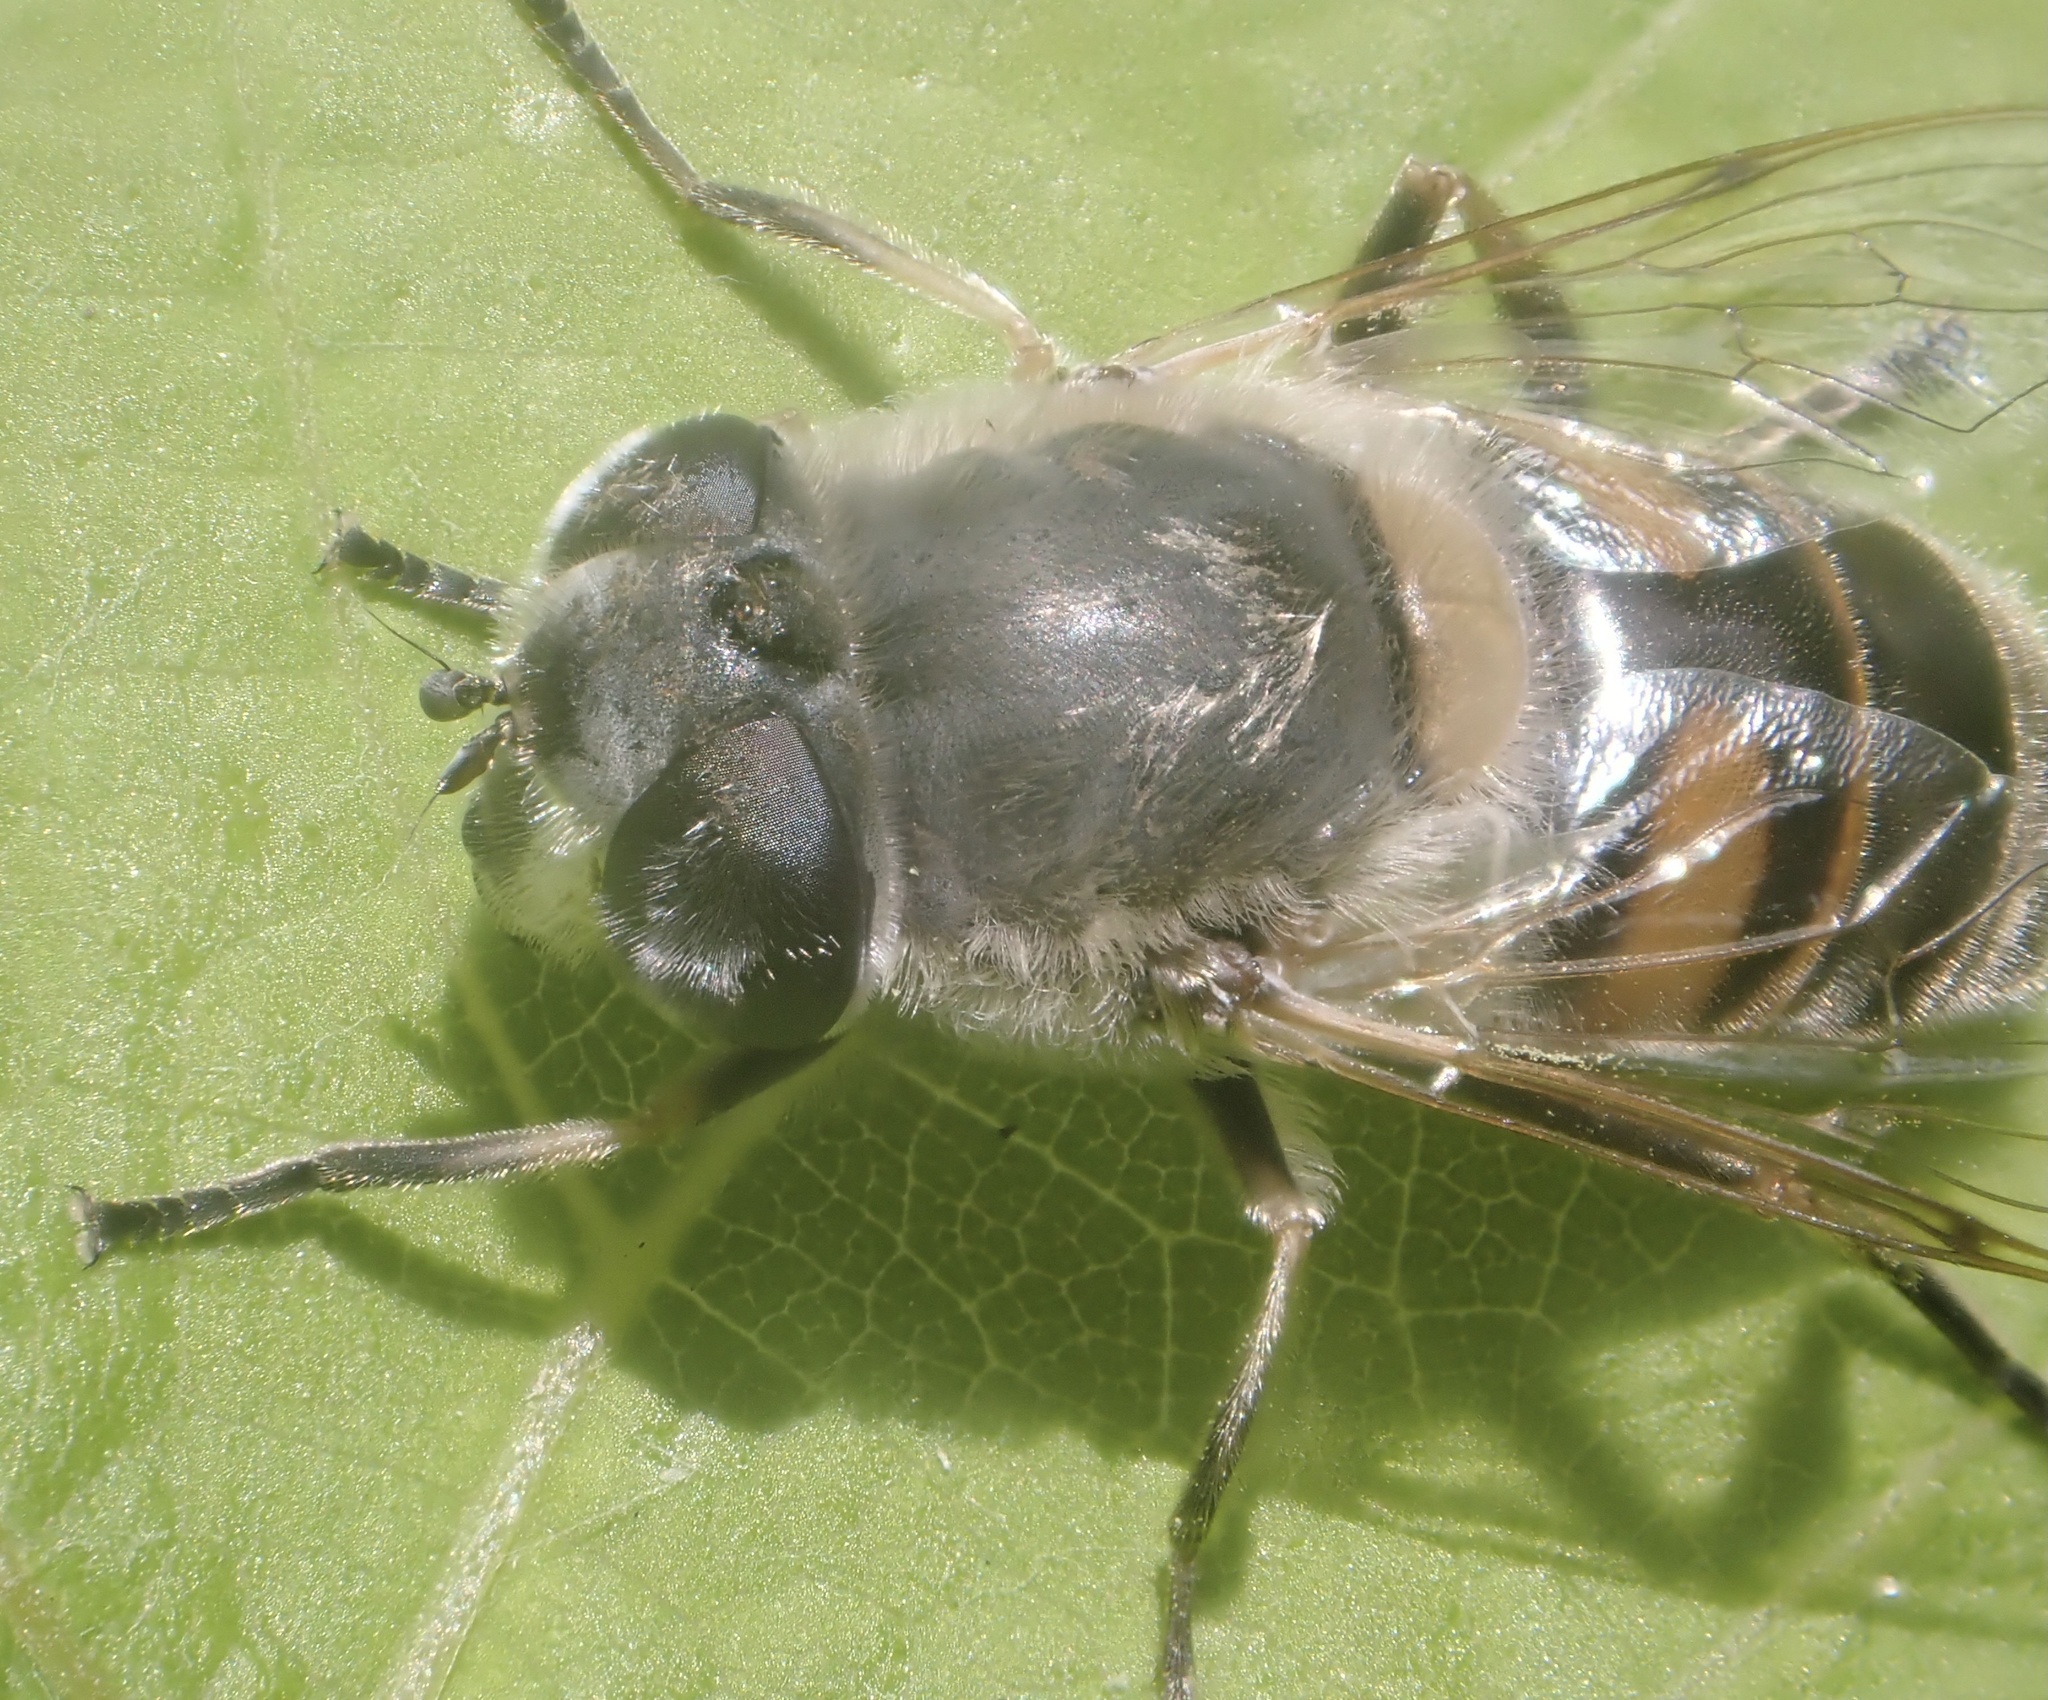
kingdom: Animalia
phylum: Arthropoda
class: Insecta
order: Diptera
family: Syrphidae
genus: Eristalis
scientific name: Eristalis tenax
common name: Drone fly
